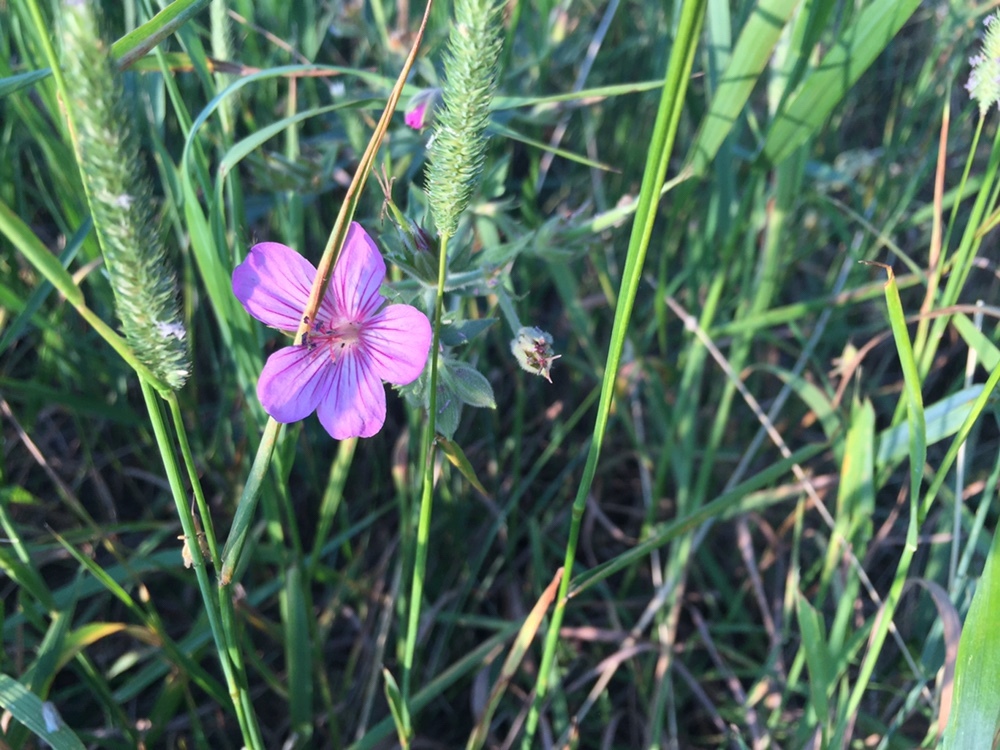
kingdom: Plantae
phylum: Tracheophyta
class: Magnoliopsida
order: Geraniales
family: Geraniaceae
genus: Geranium
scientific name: Geranium viscosissimum
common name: Purple geranium
